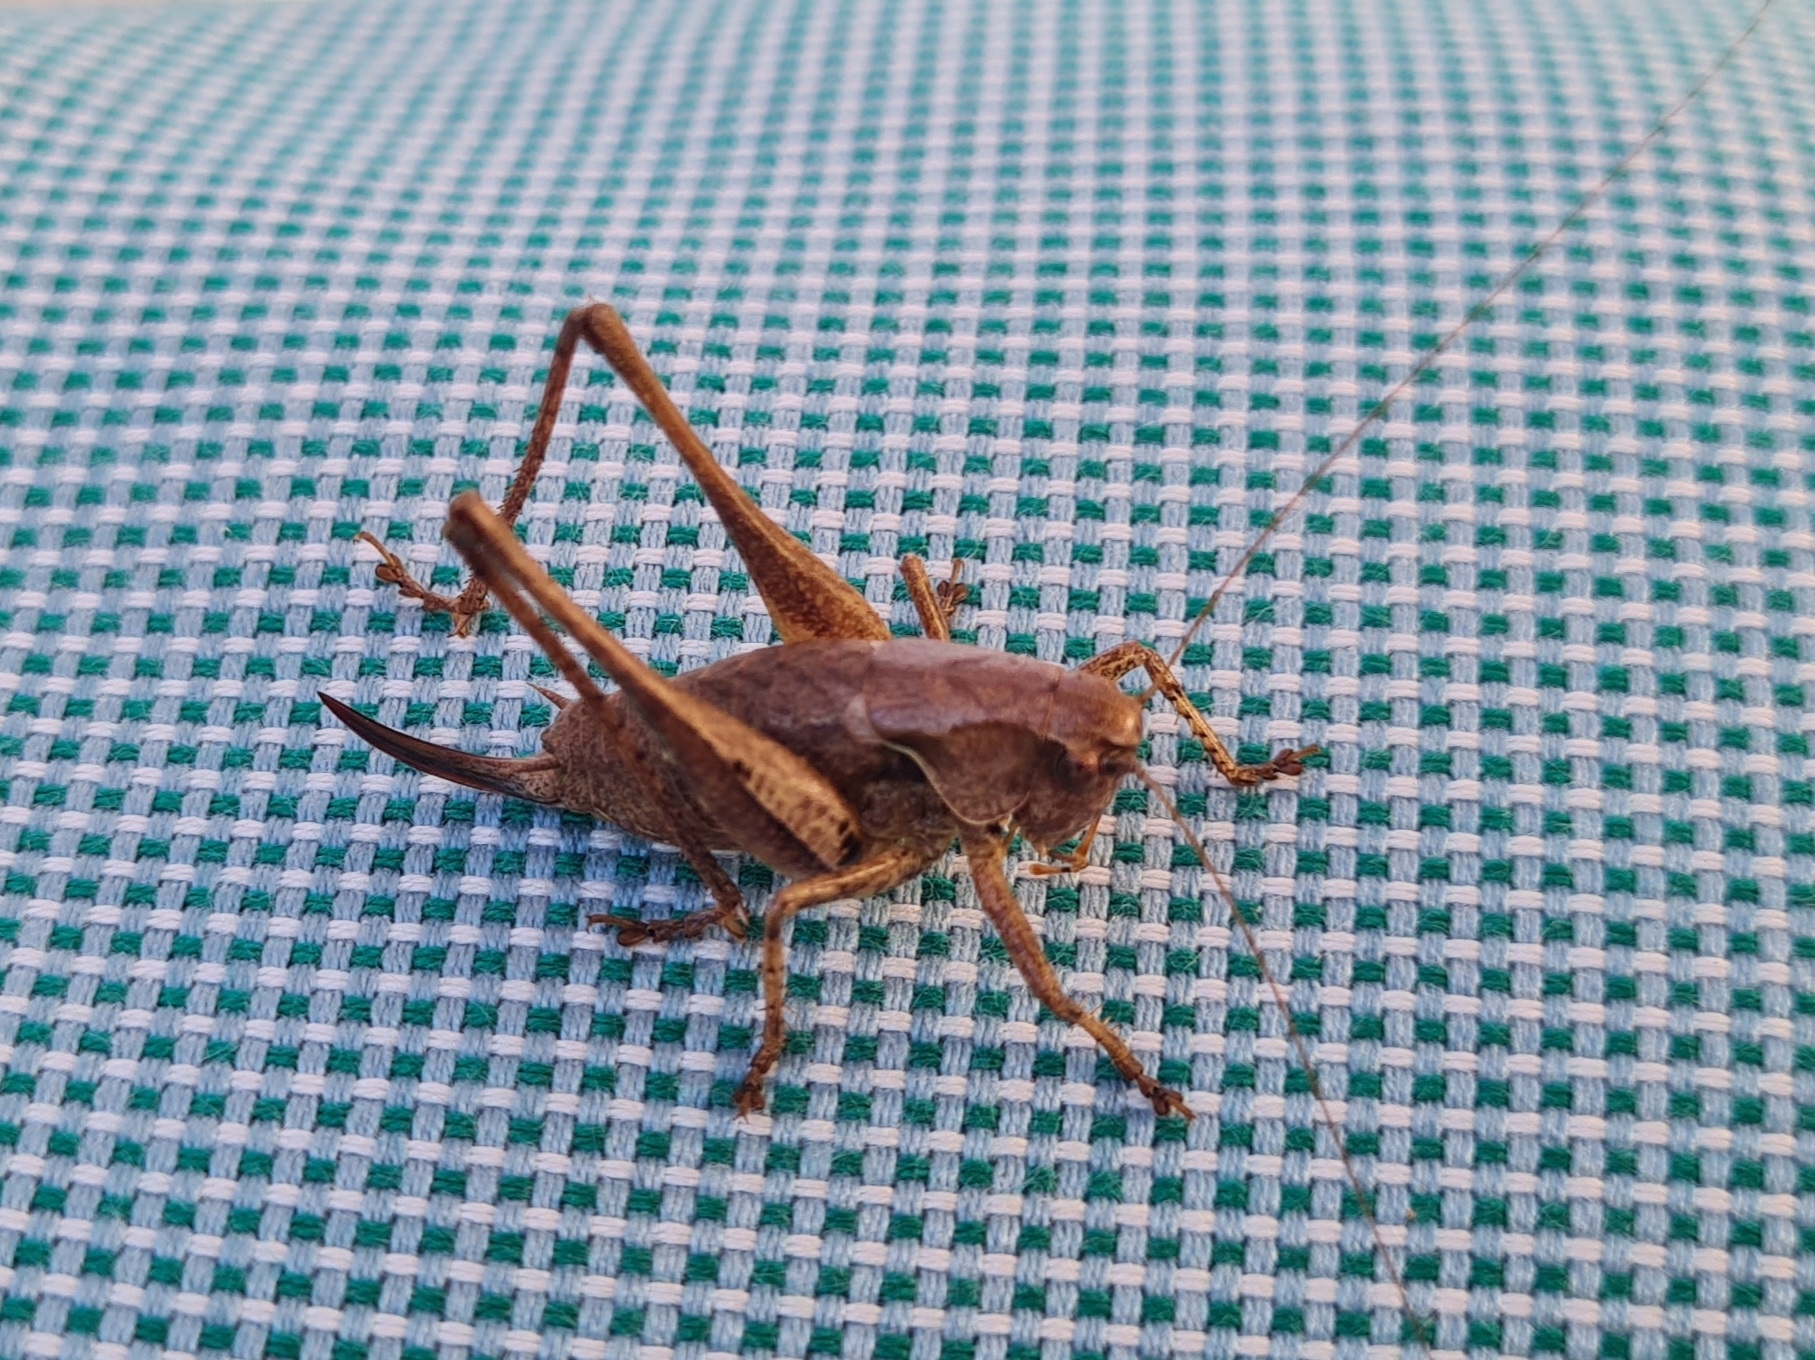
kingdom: Animalia
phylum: Arthropoda
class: Insecta
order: Orthoptera
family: Tettigoniidae
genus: Pholidoptera
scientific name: Pholidoptera griseoaptera
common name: Dark bush-cricket
